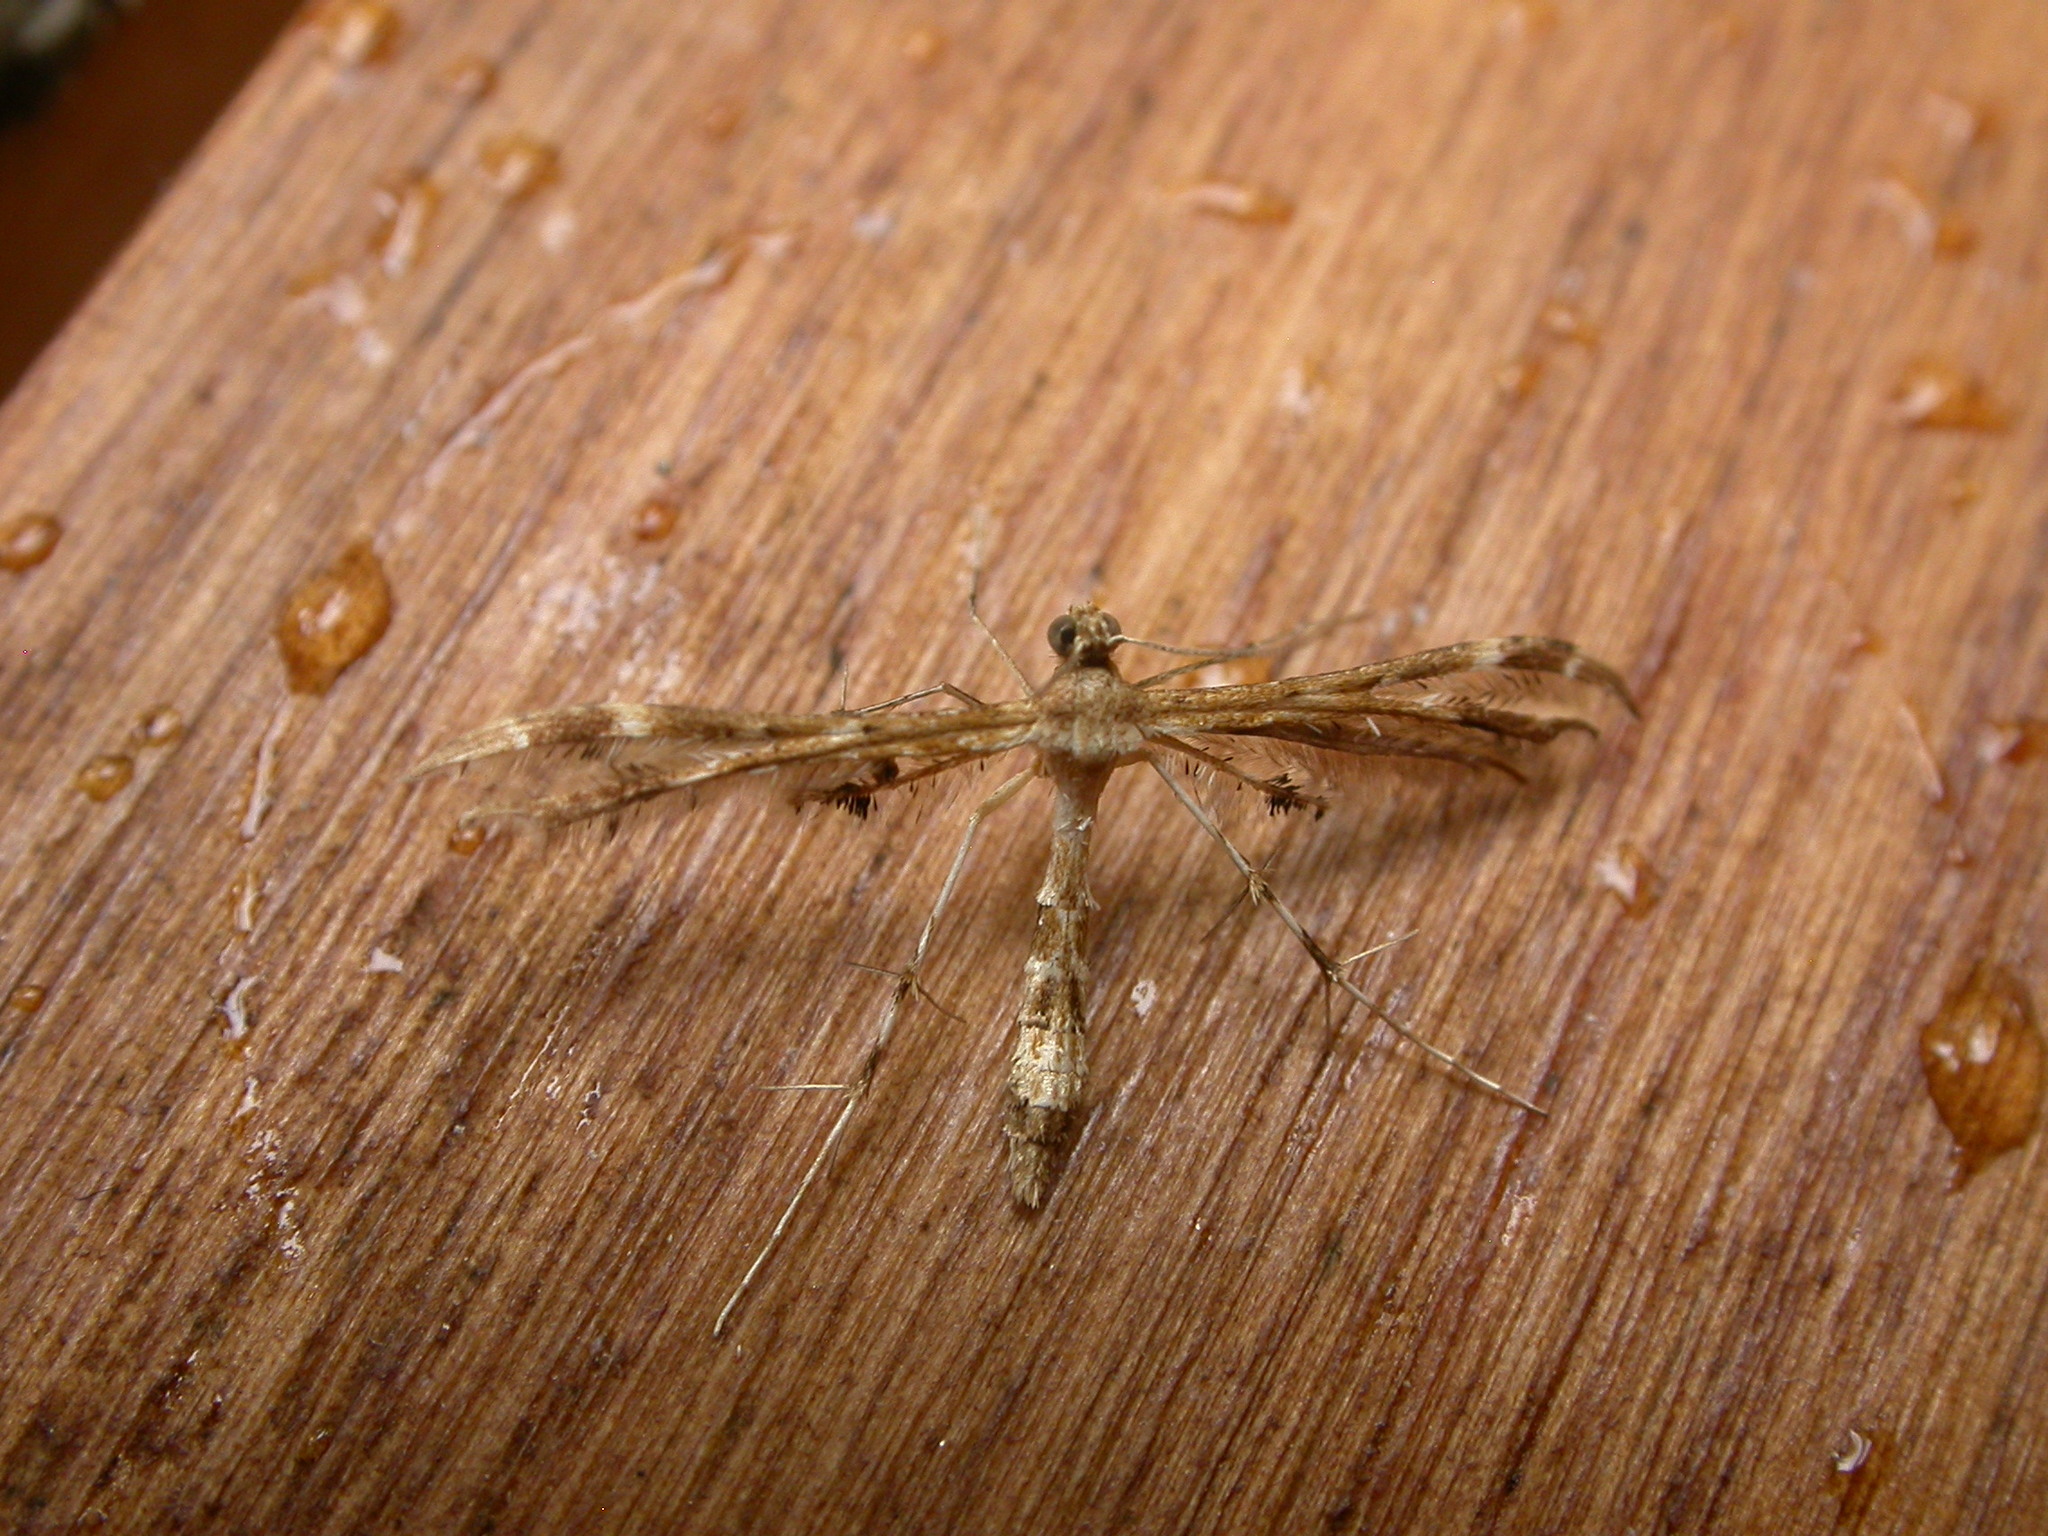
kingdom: Animalia
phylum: Arthropoda
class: Insecta
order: Lepidoptera
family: Pterophoridae
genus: Sphenarches
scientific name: Sphenarches anisodactylus
